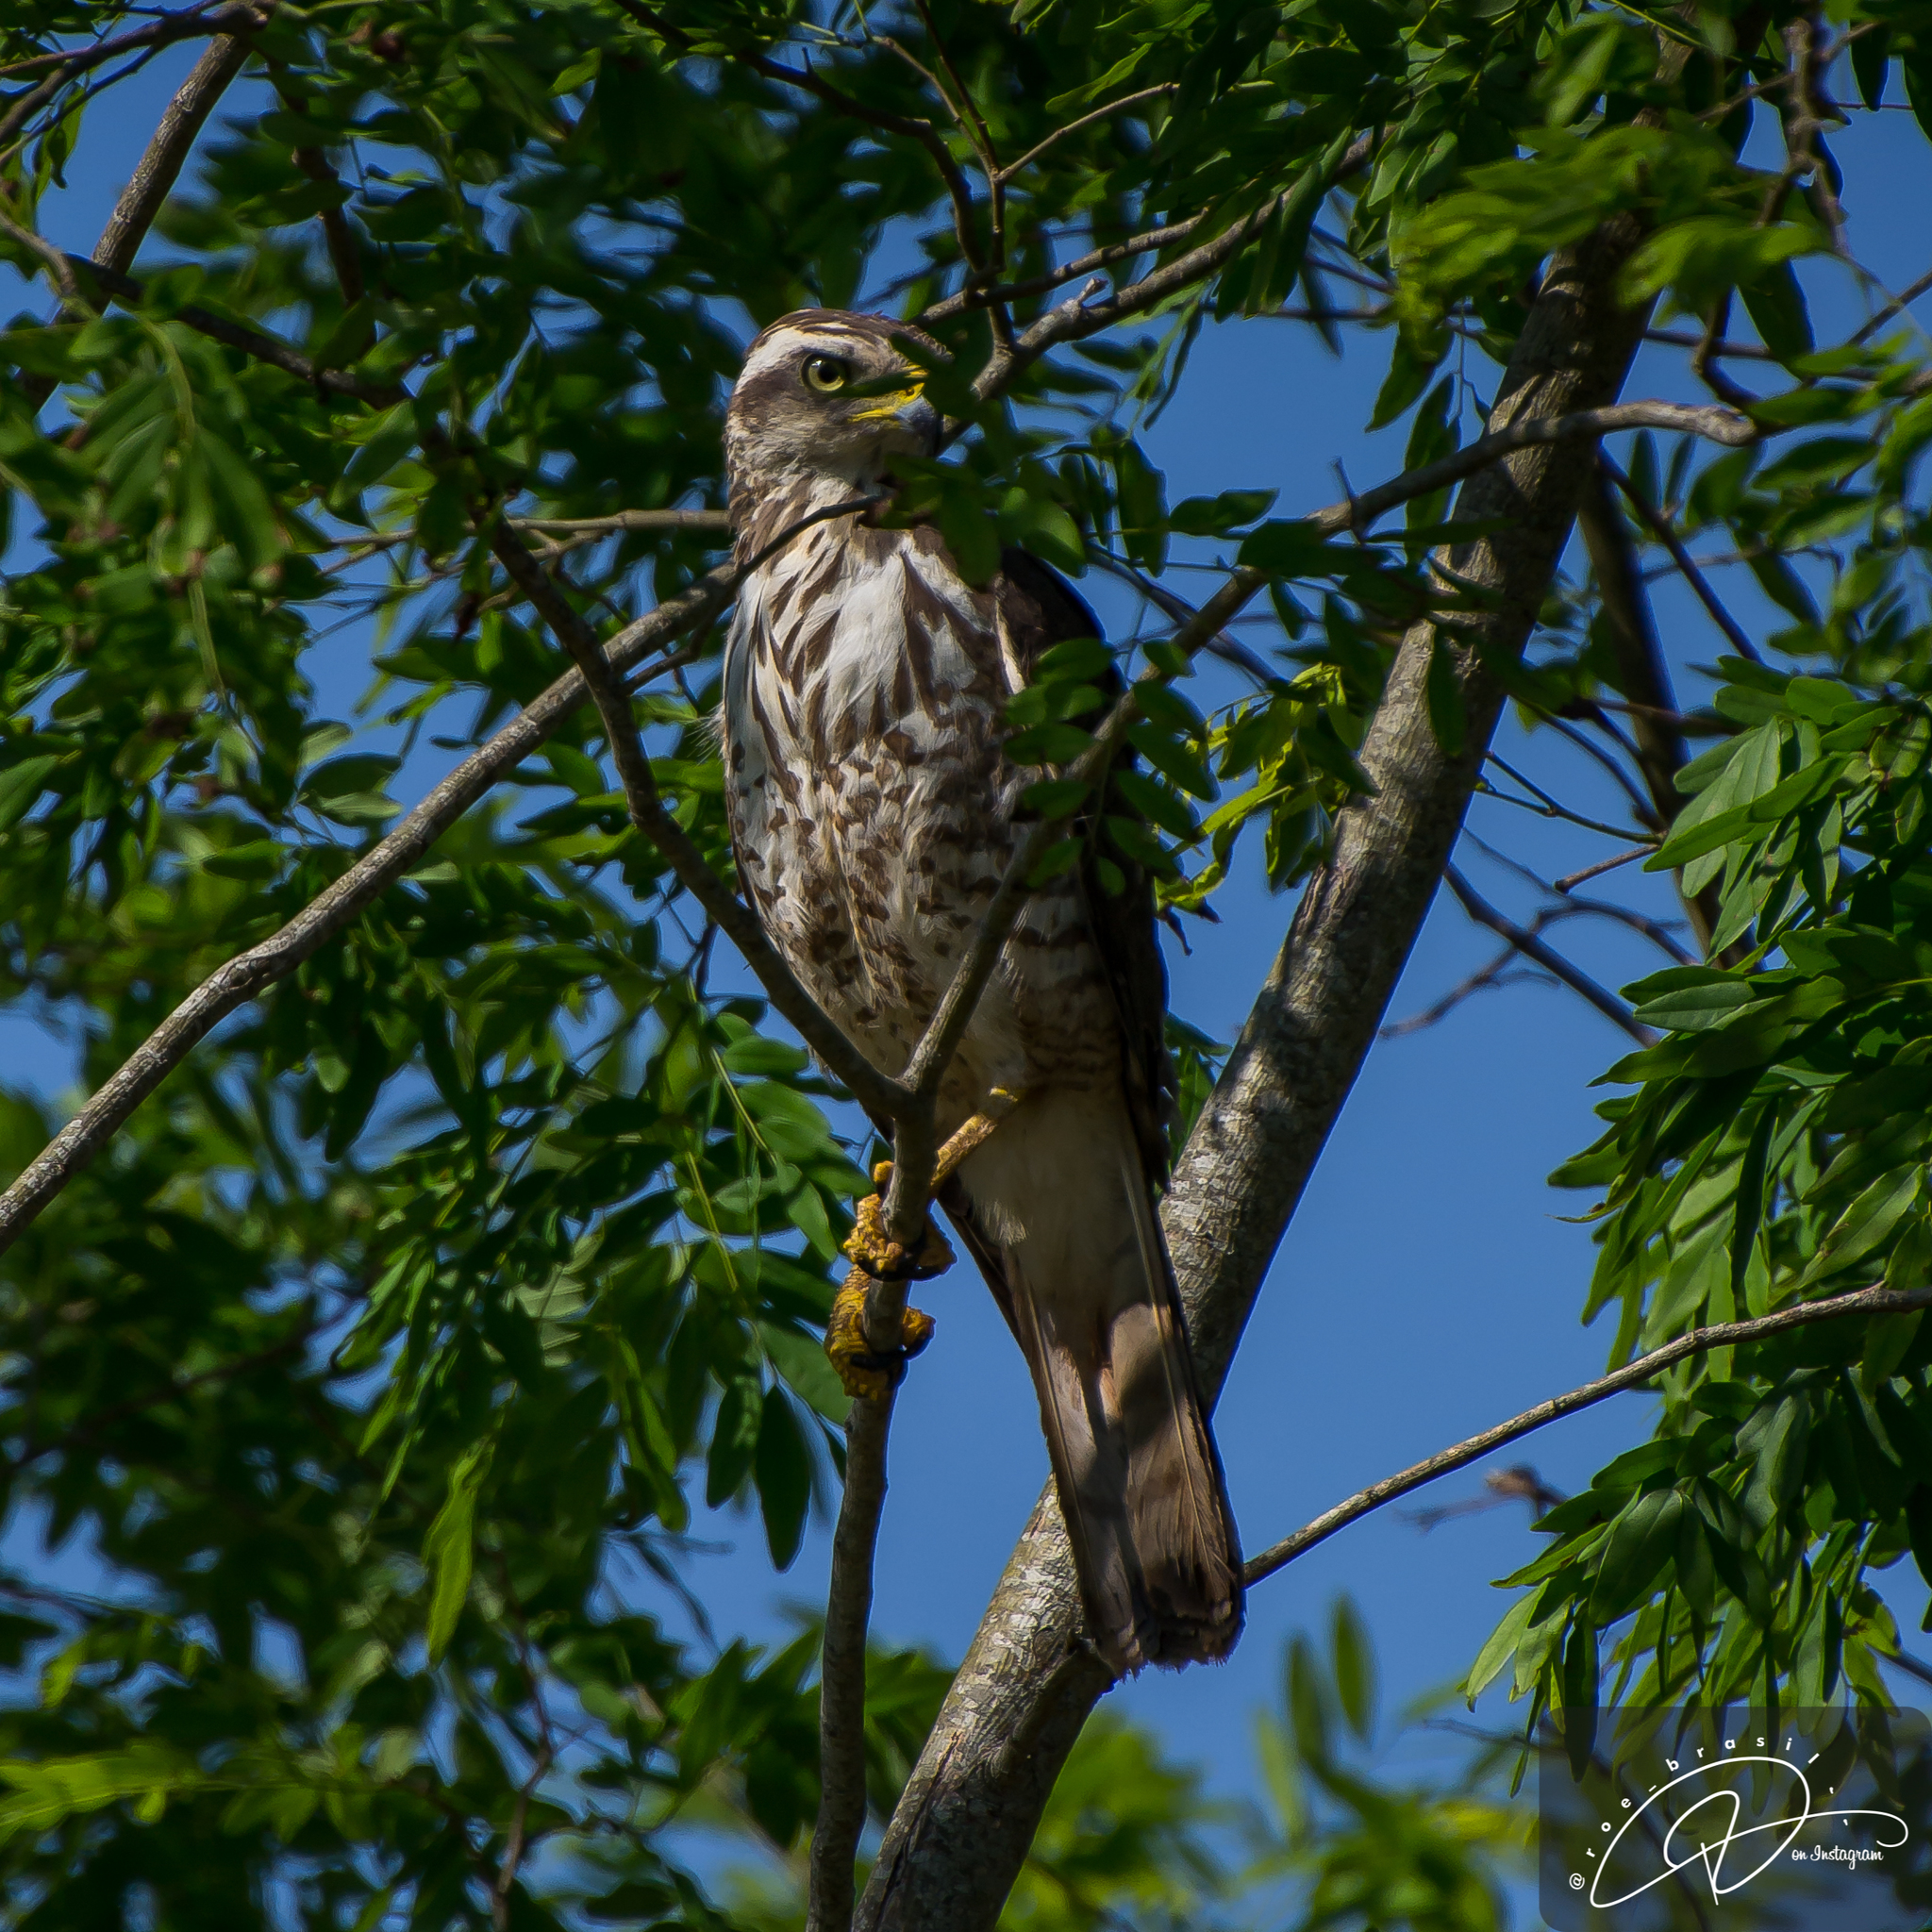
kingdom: Animalia
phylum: Chordata
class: Aves
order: Accipitriformes
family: Accipitridae
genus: Rupornis
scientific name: Rupornis magnirostris
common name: Roadside hawk
